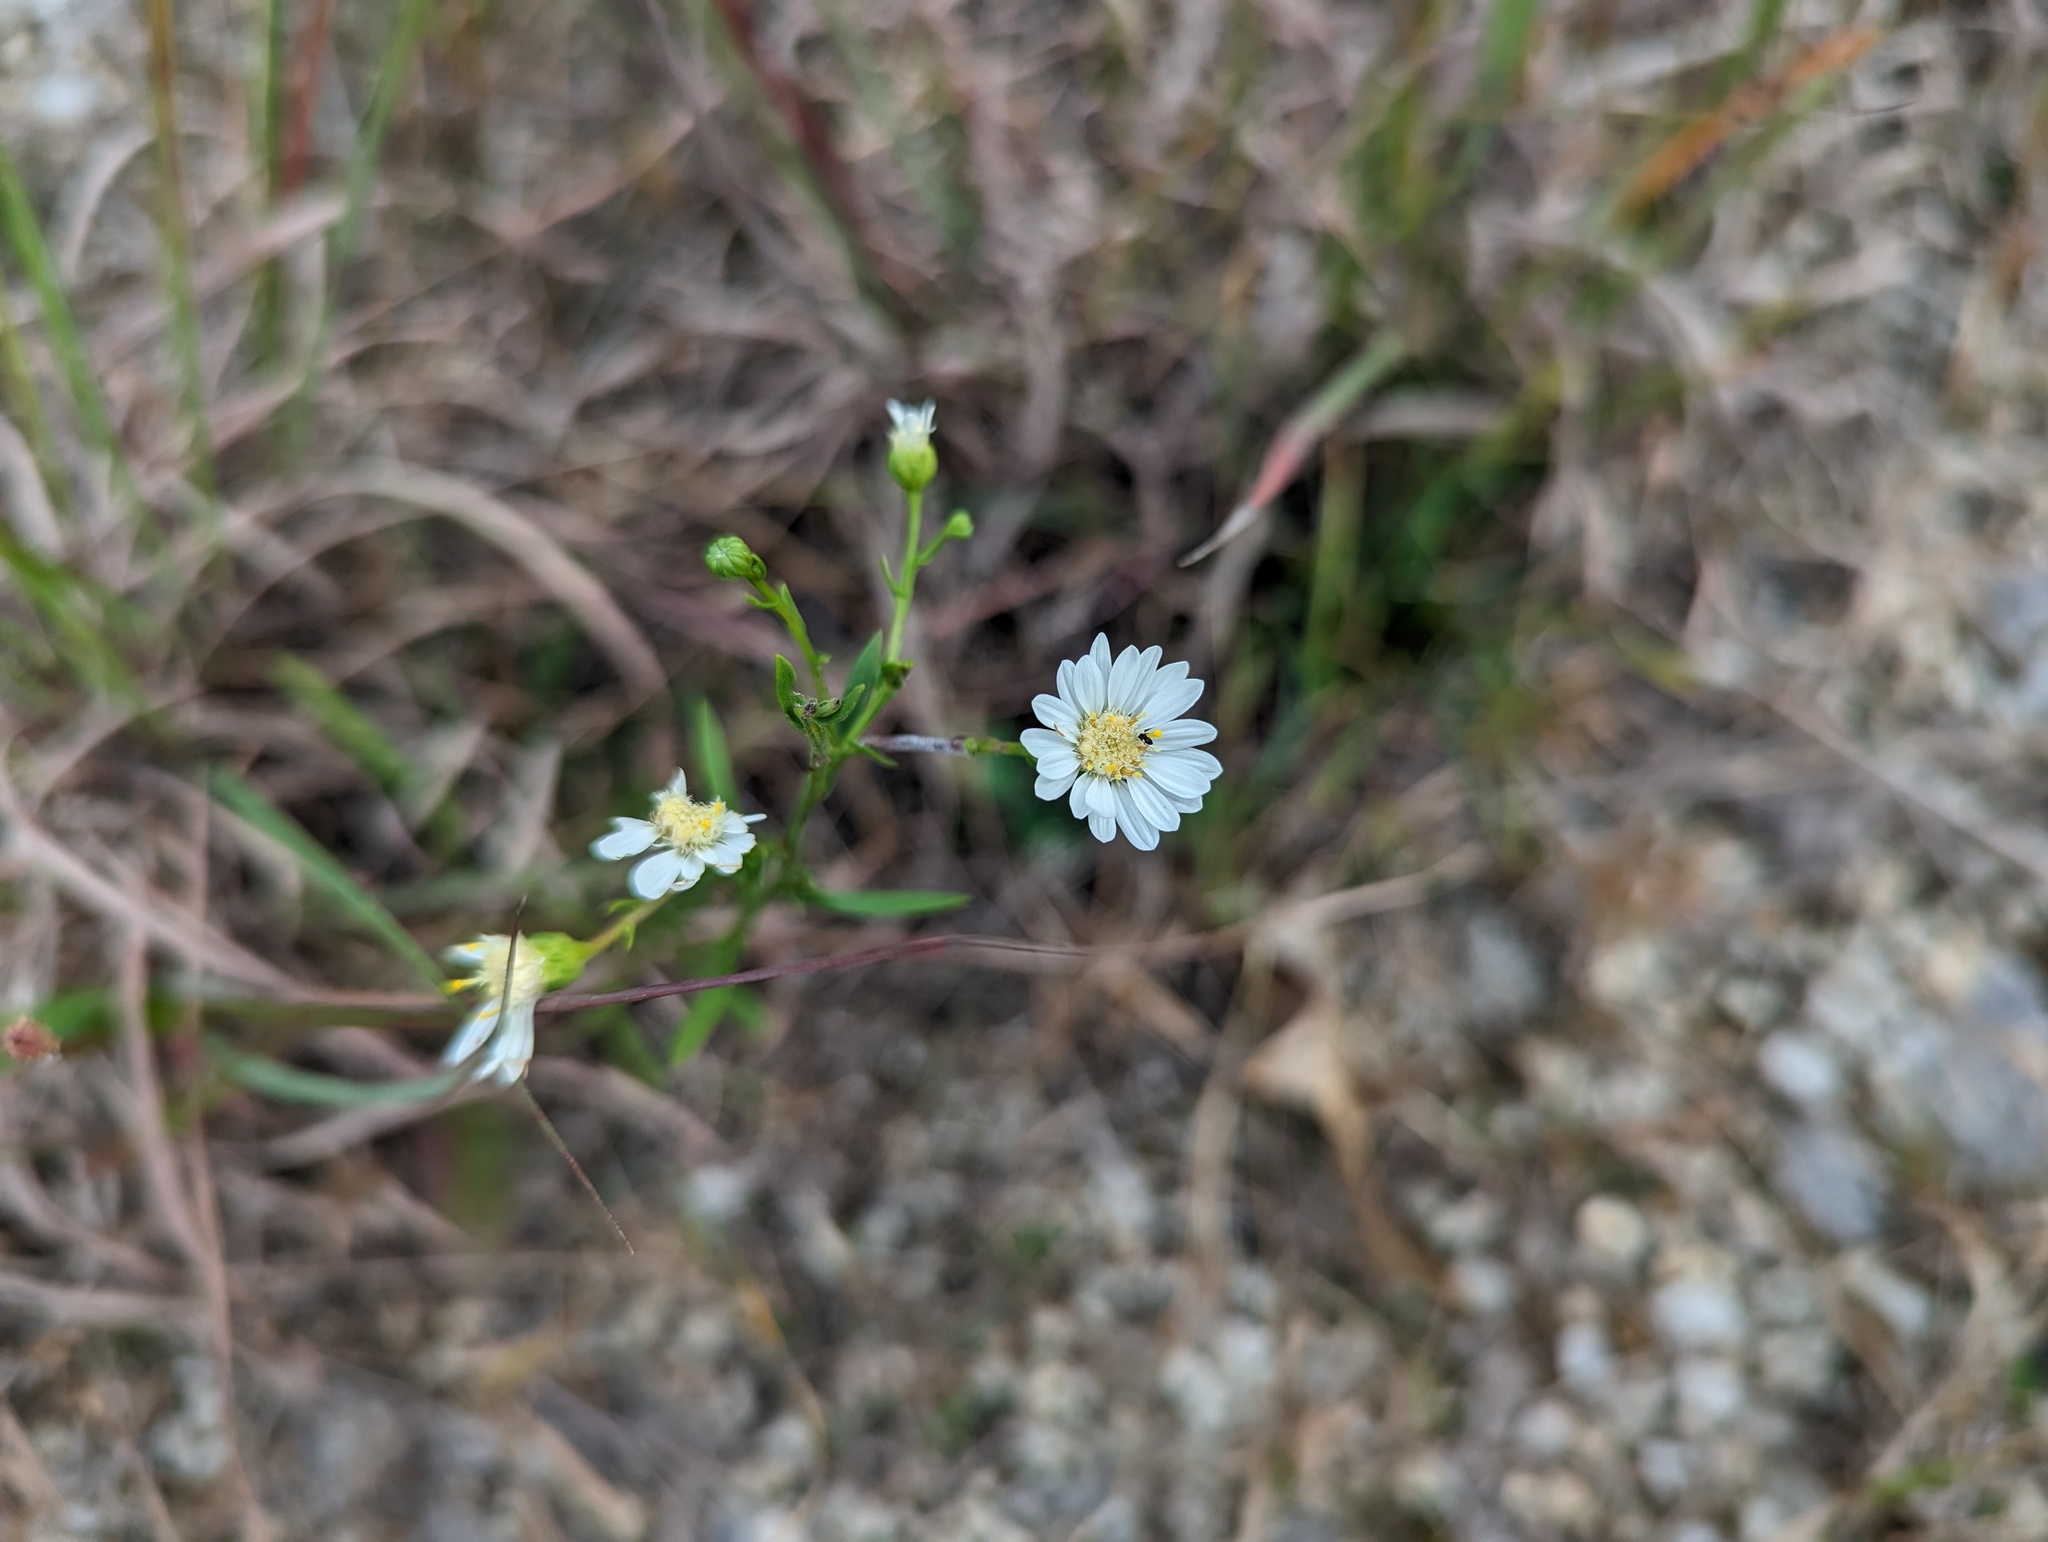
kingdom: Plantae
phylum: Tracheophyta
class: Magnoliopsida
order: Asterales
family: Asteraceae
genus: Solidago
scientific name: Solidago ptarmicoides
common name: White flat-top goldenrod
